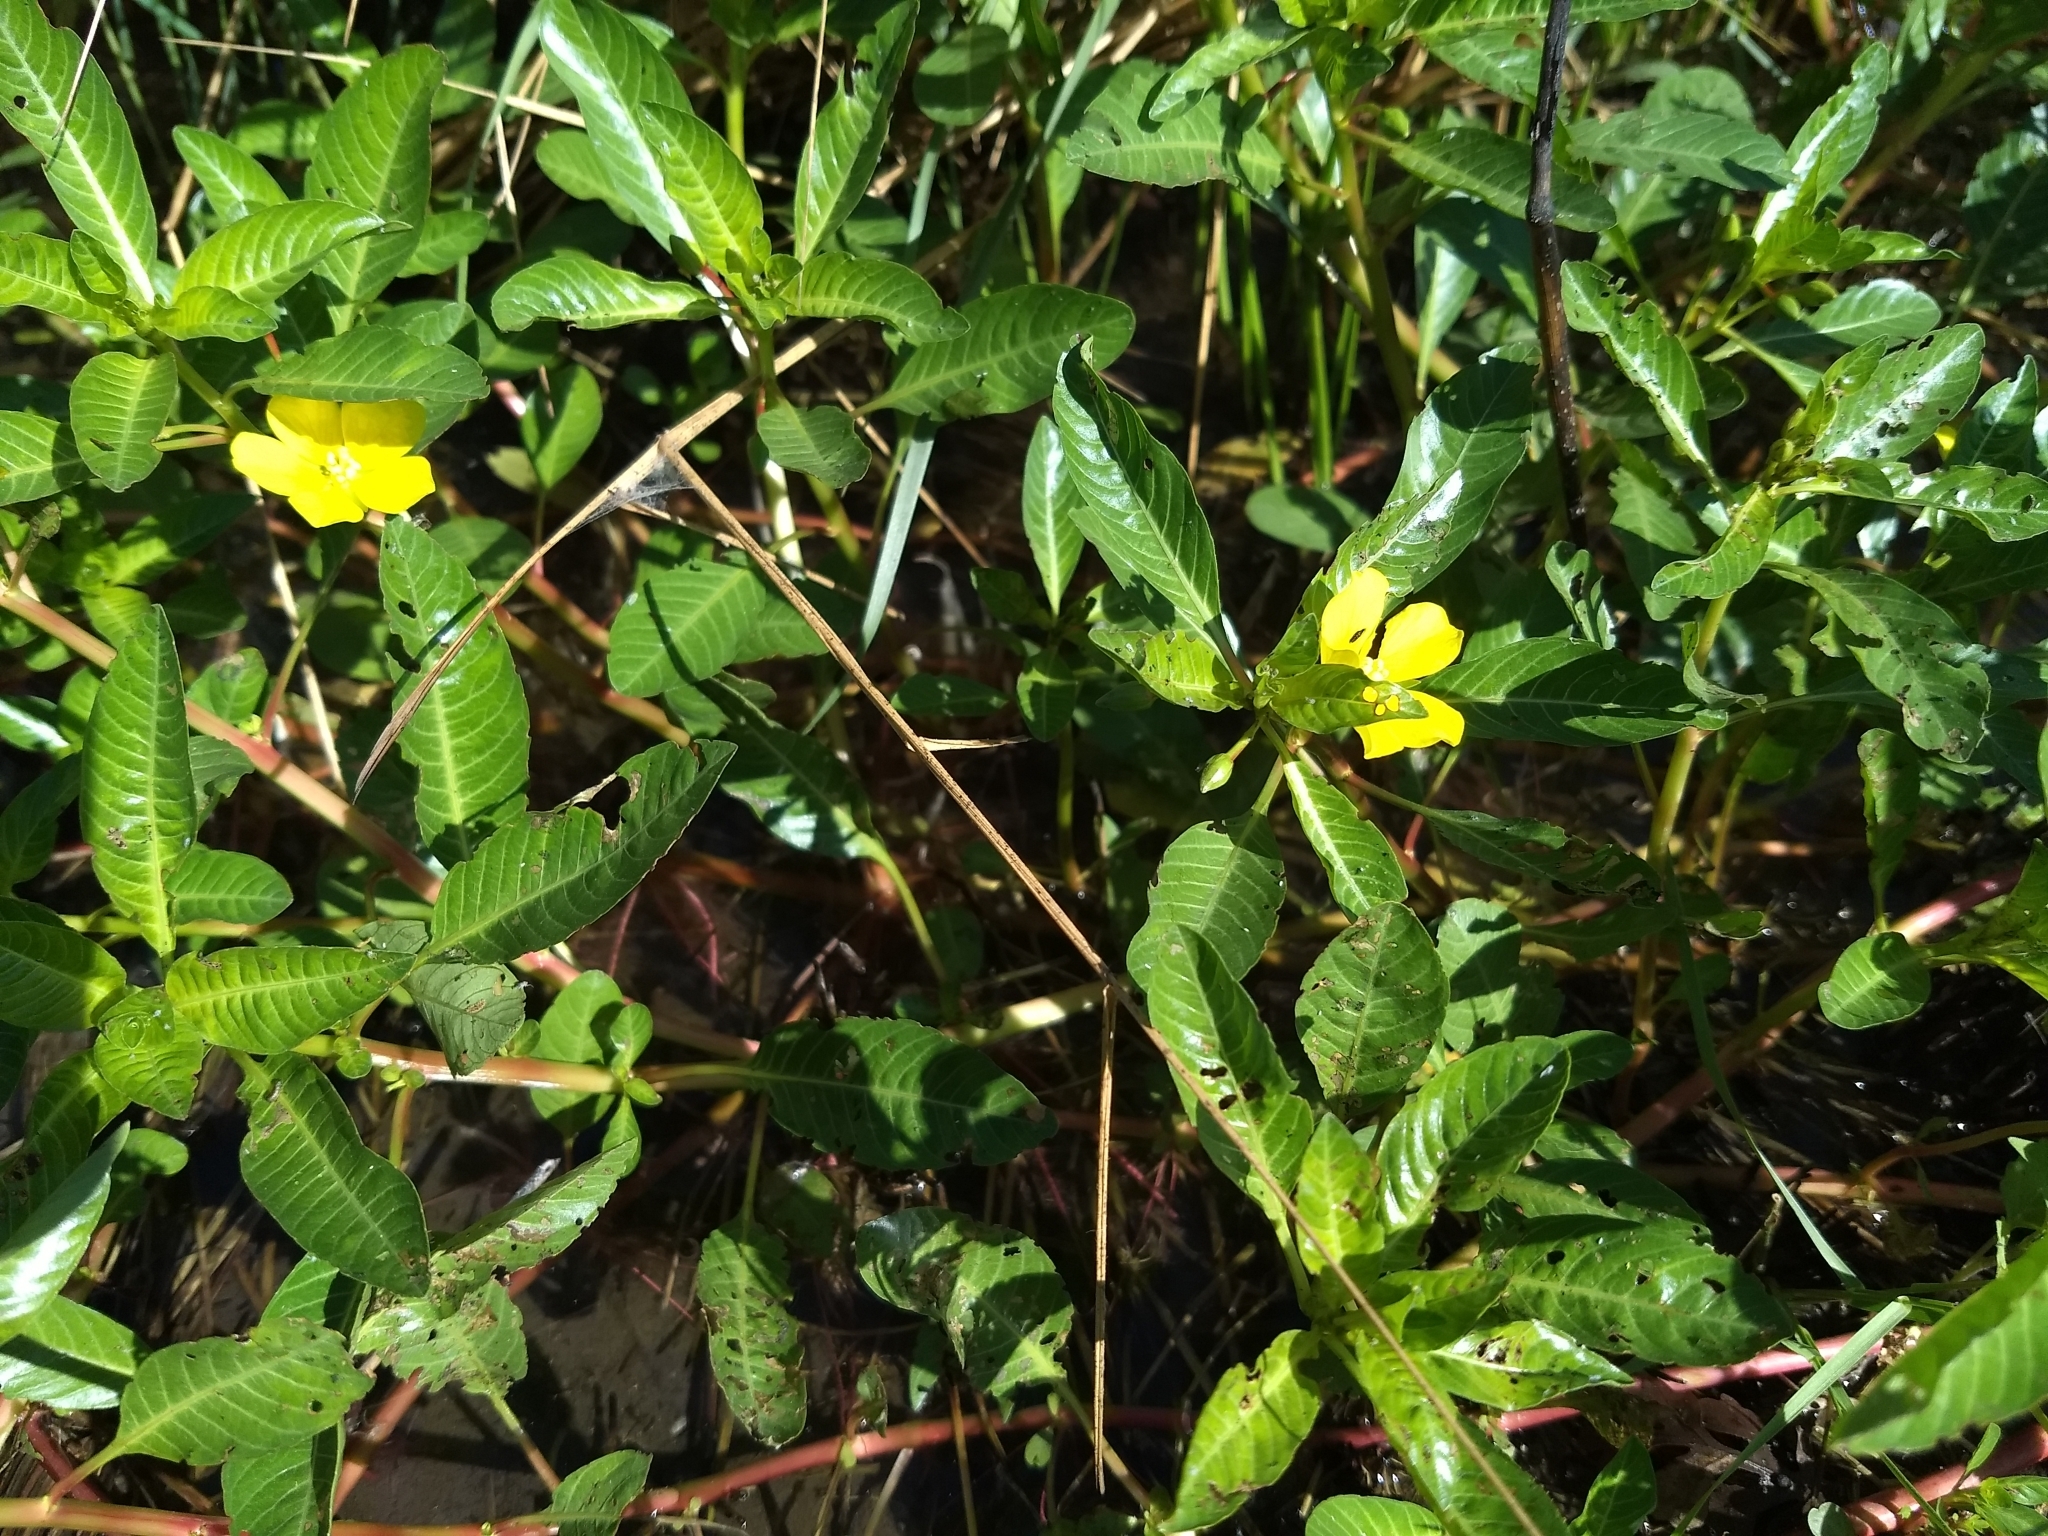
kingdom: Plantae
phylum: Tracheophyta
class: Magnoliopsida
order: Myrtales
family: Onagraceae
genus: Ludwigia
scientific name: Ludwigia peploides
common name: Floating primrose-willow
